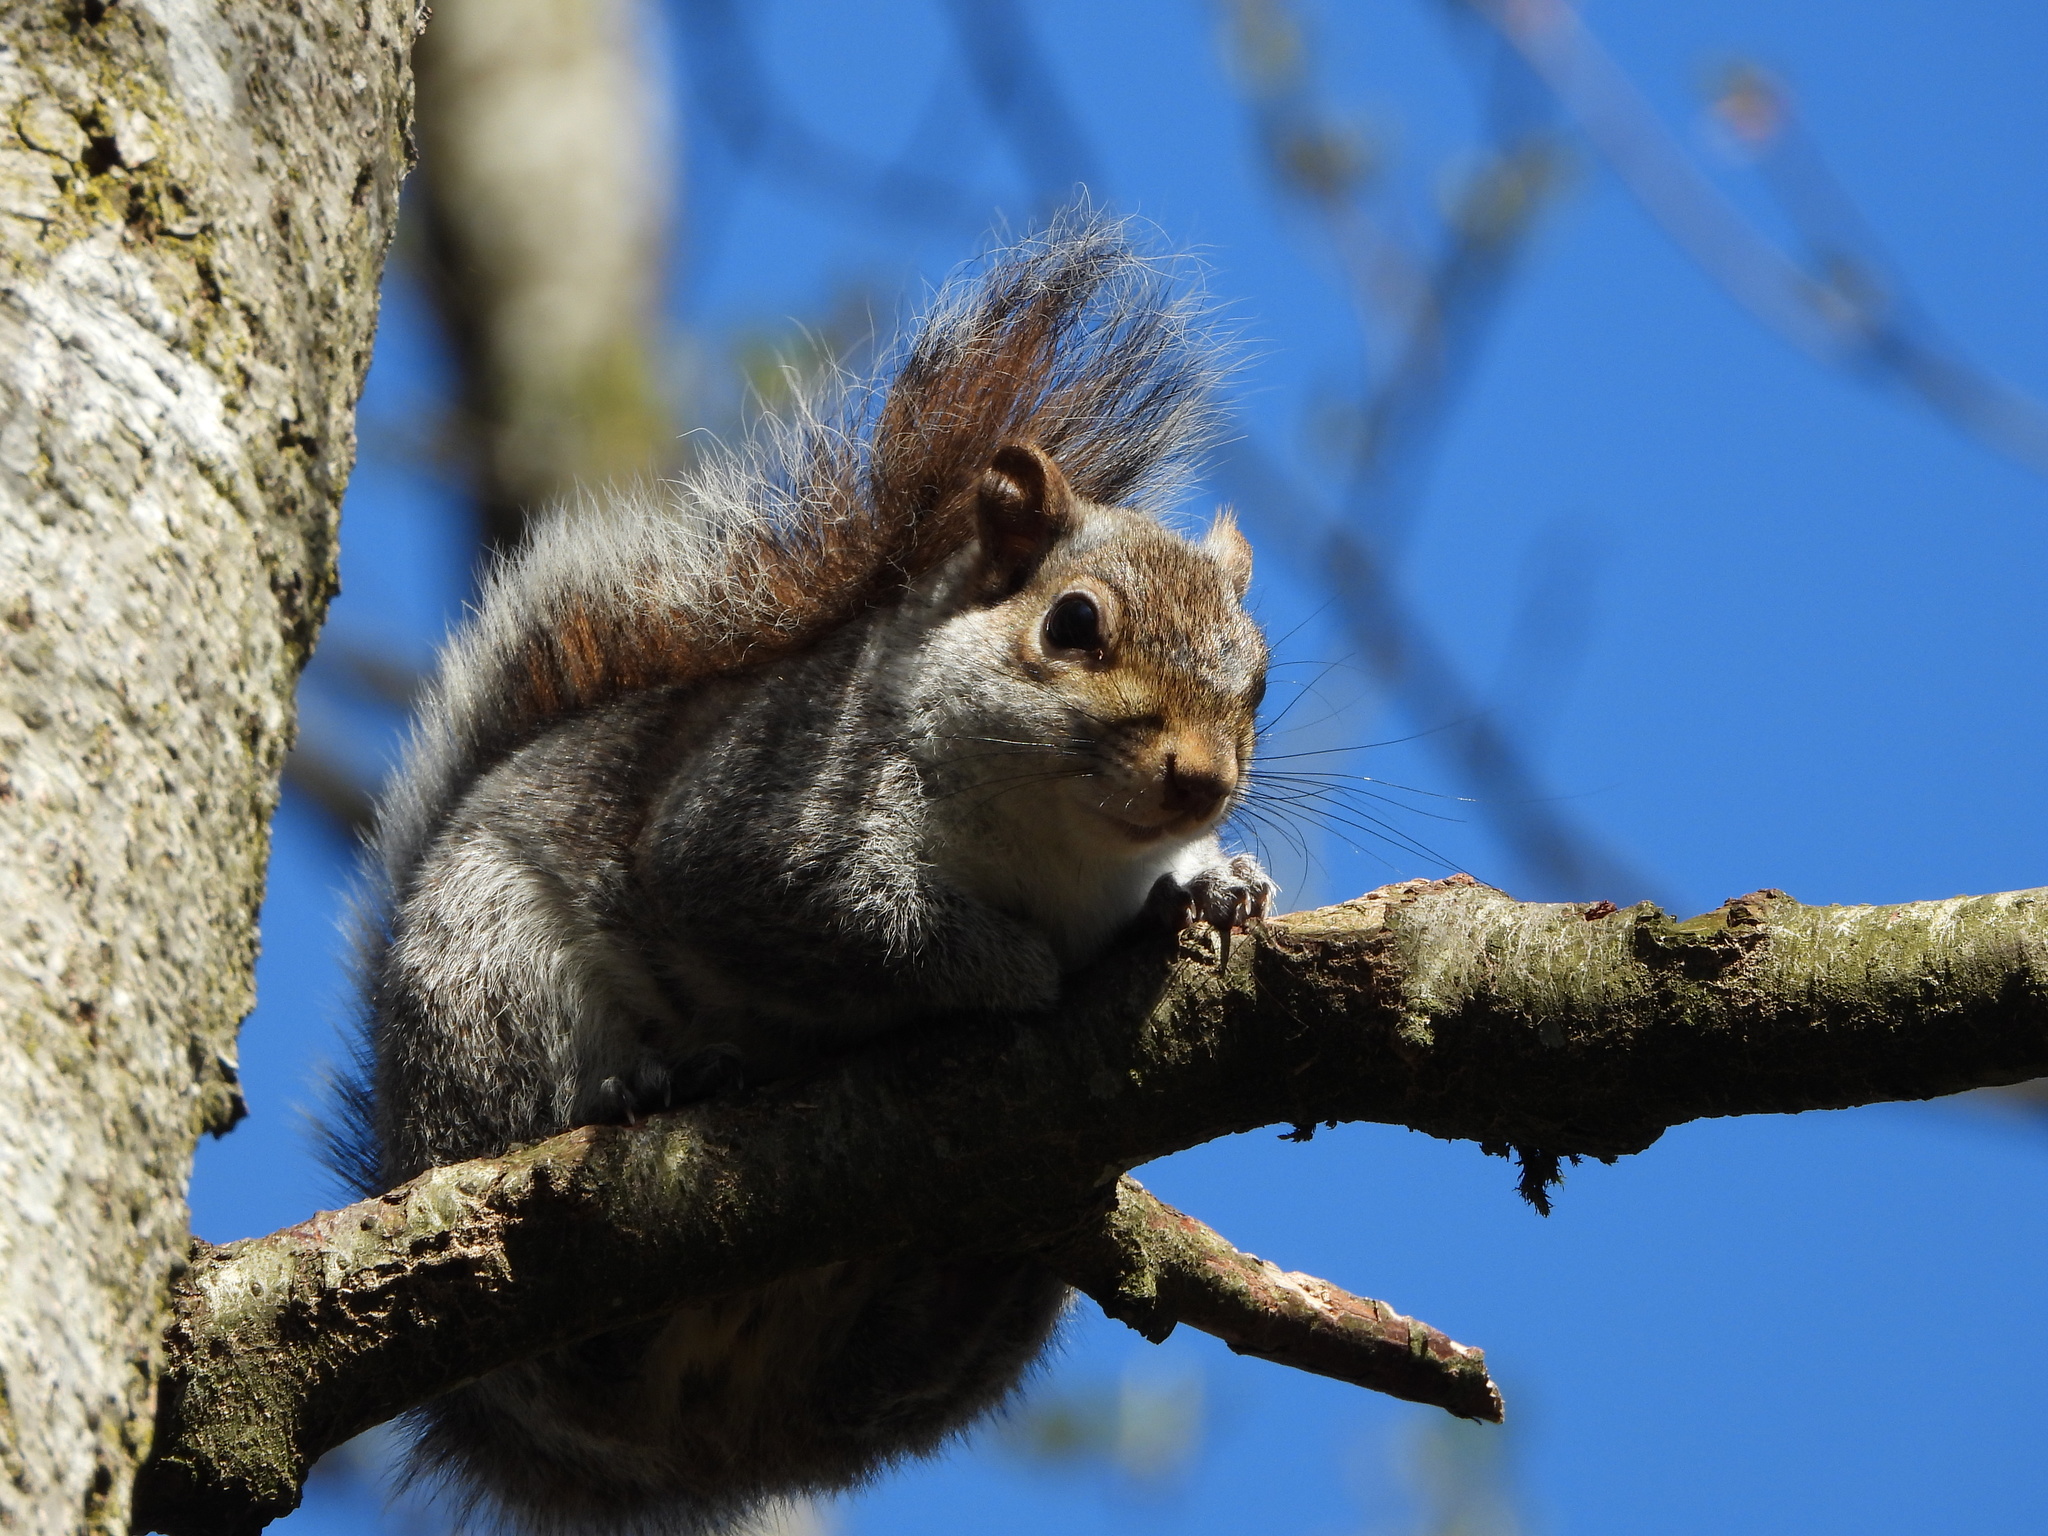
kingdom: Animalia
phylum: Chordata
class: Mammalia
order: Rodentia
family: Sciuridae
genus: Sciurus
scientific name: Sciurus carolinensis
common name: Eastern gray squirrel
